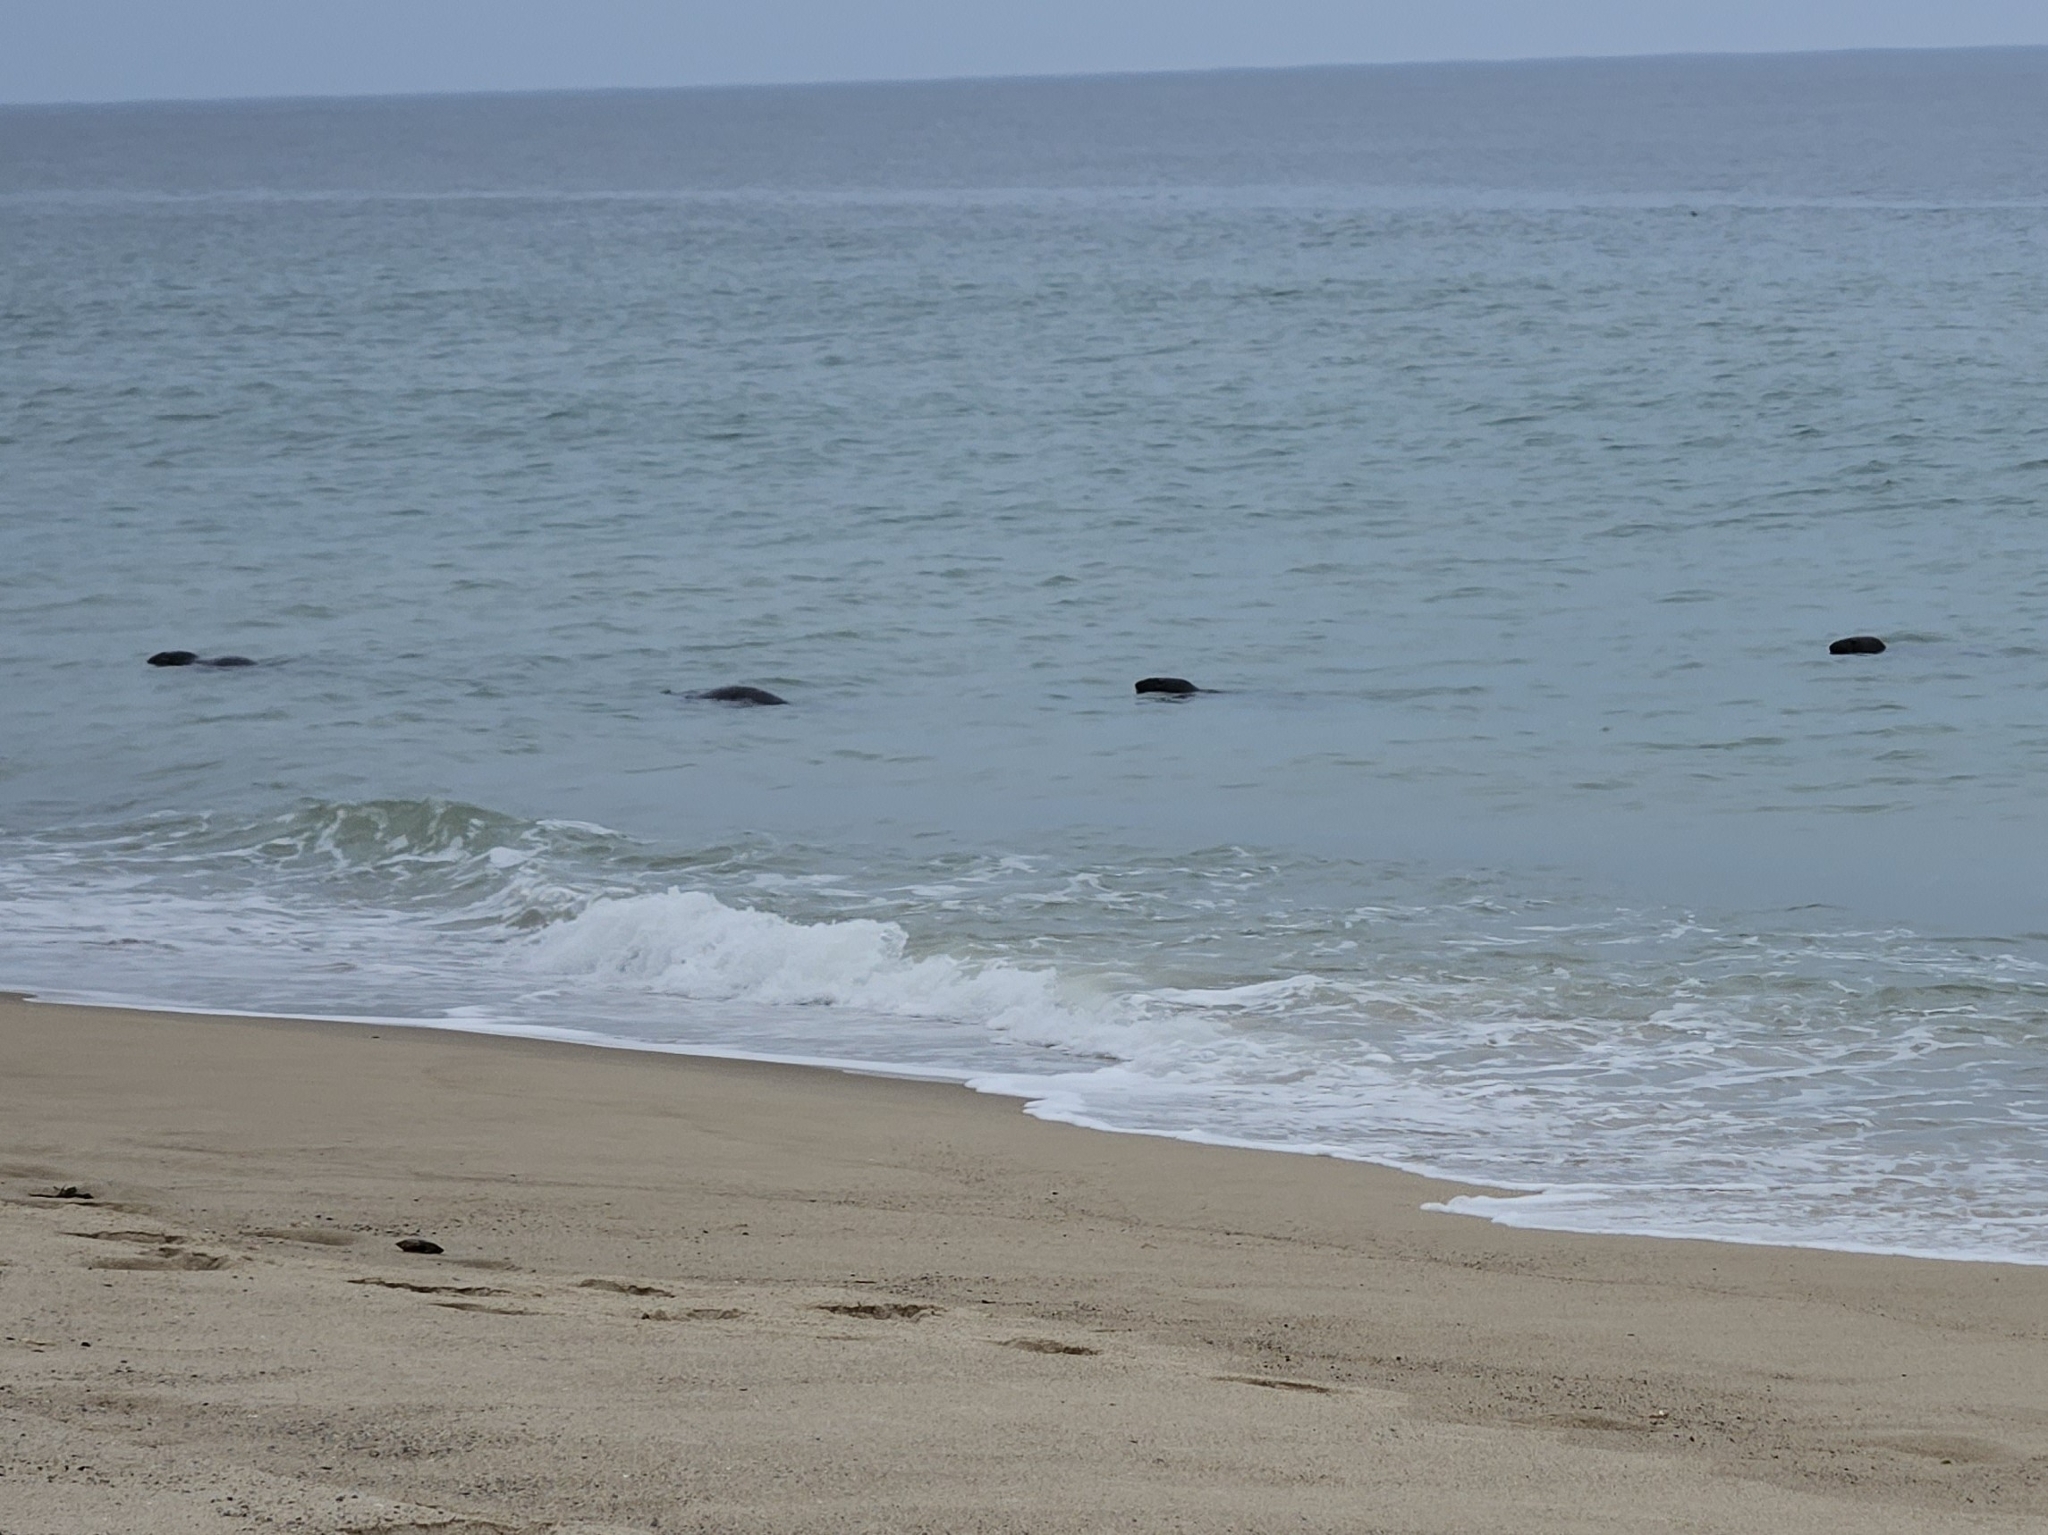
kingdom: Animalia
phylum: Chordata
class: Mammalia
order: Carnivora
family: Phocidae
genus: Halichoerus
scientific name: Halichoerus grypus
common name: Grey seal
